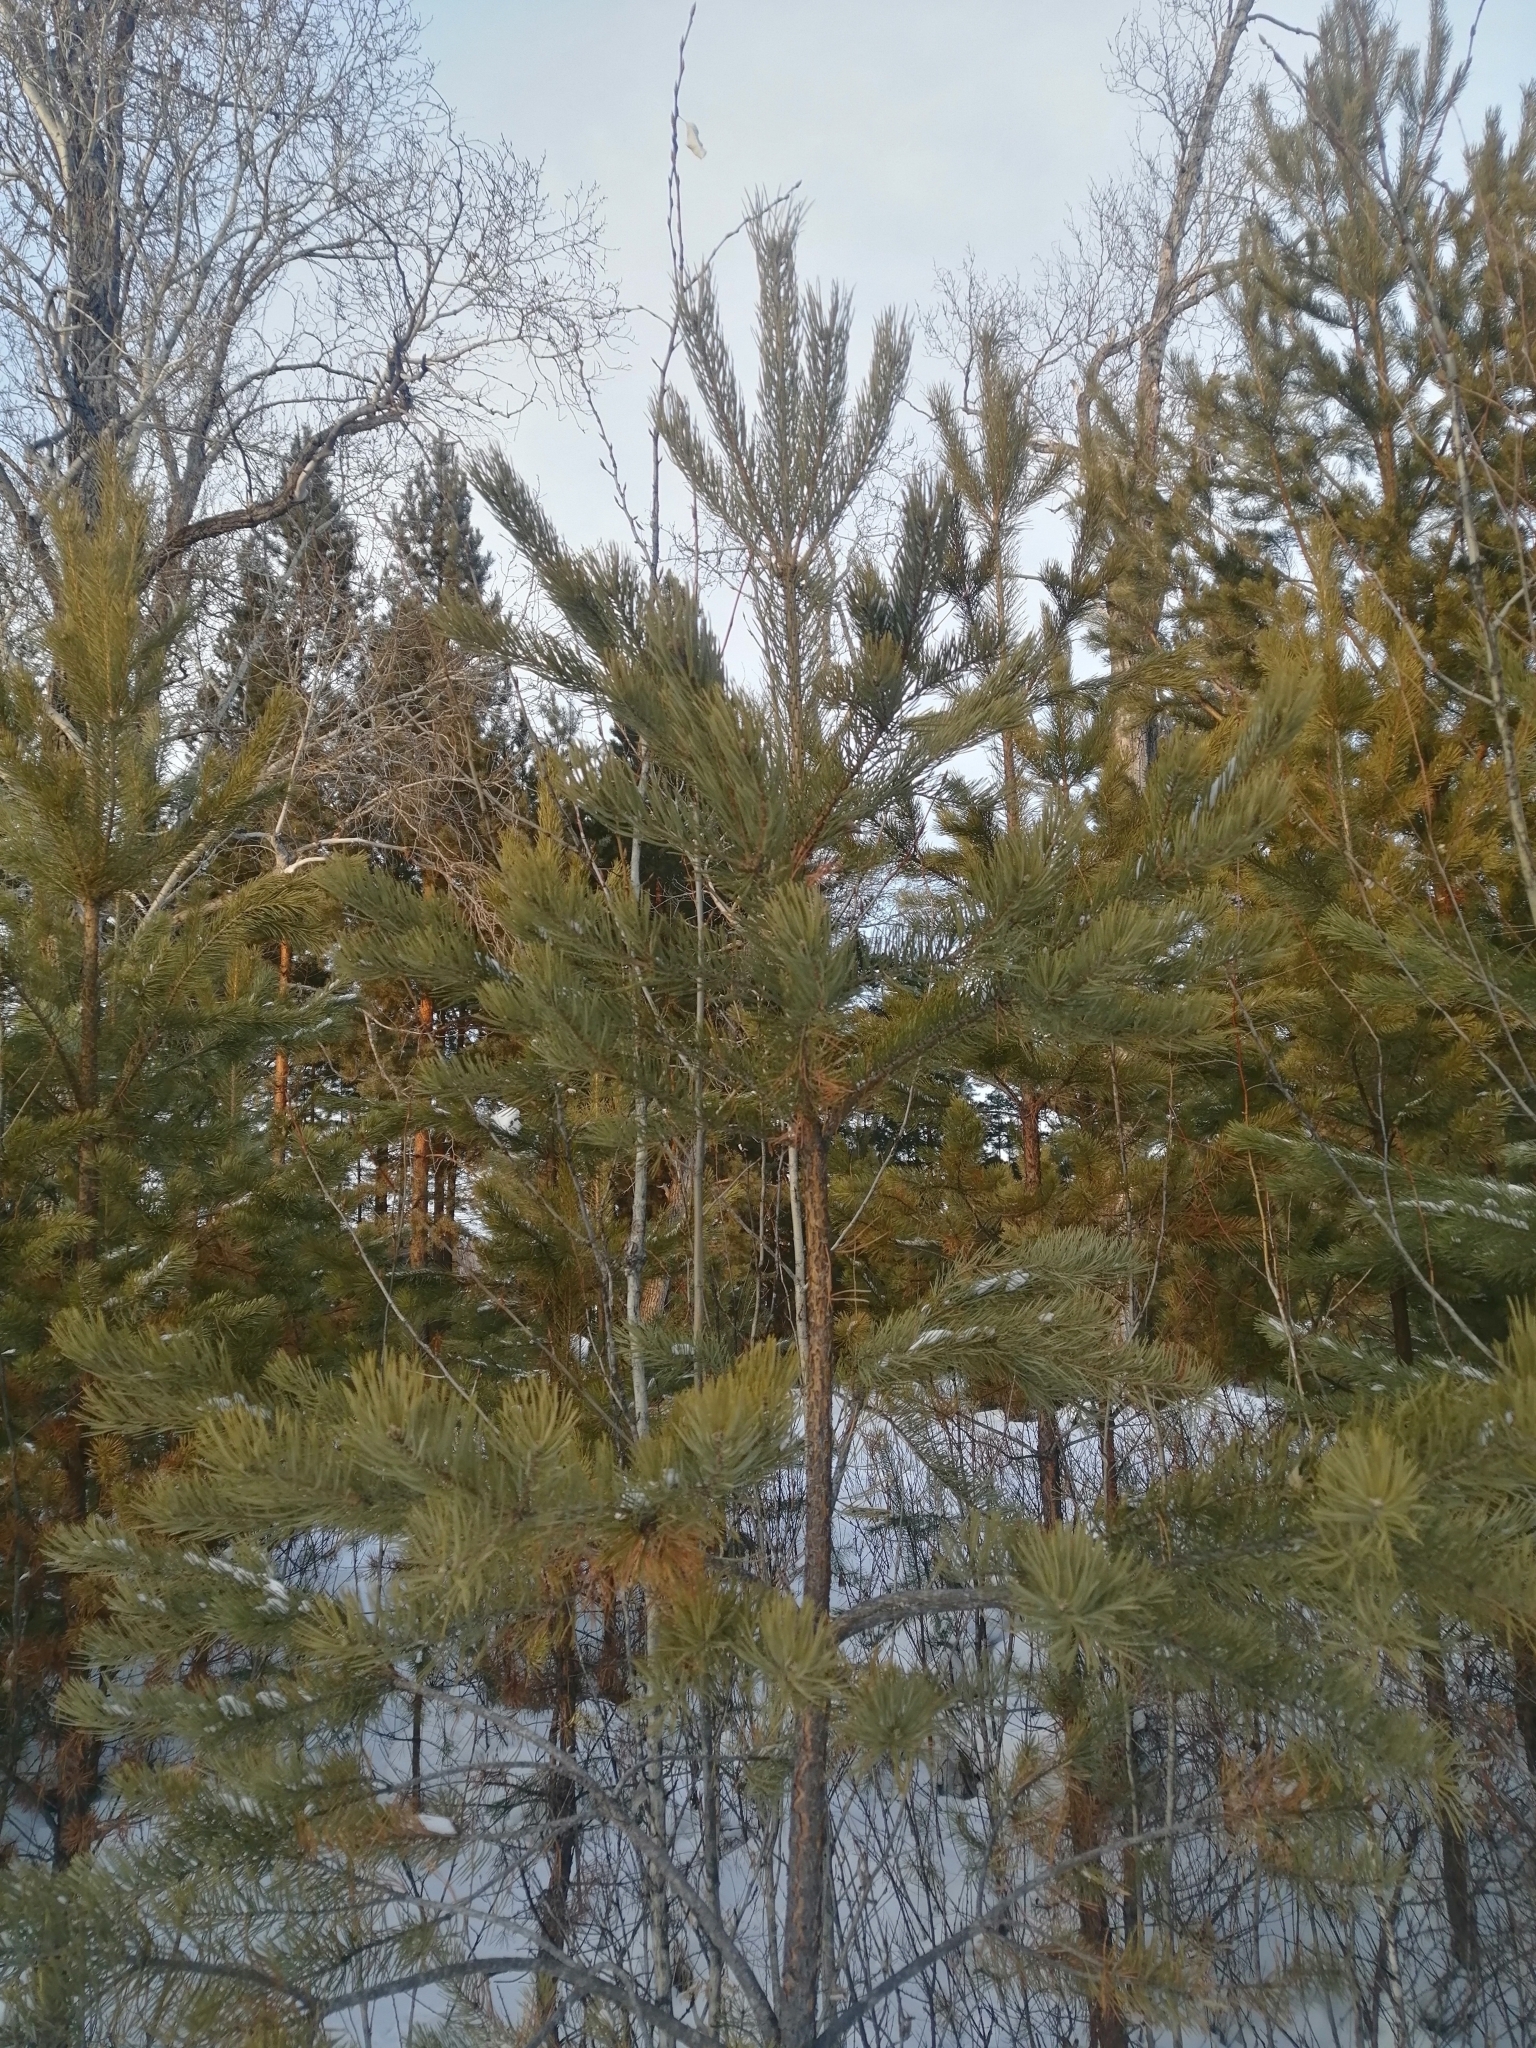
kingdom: Plantae
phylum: Tracheophyta
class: Pinopsida
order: Pinales
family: Pinaceae
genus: Pinus
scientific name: Pinus sylvestris
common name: Scots pine
